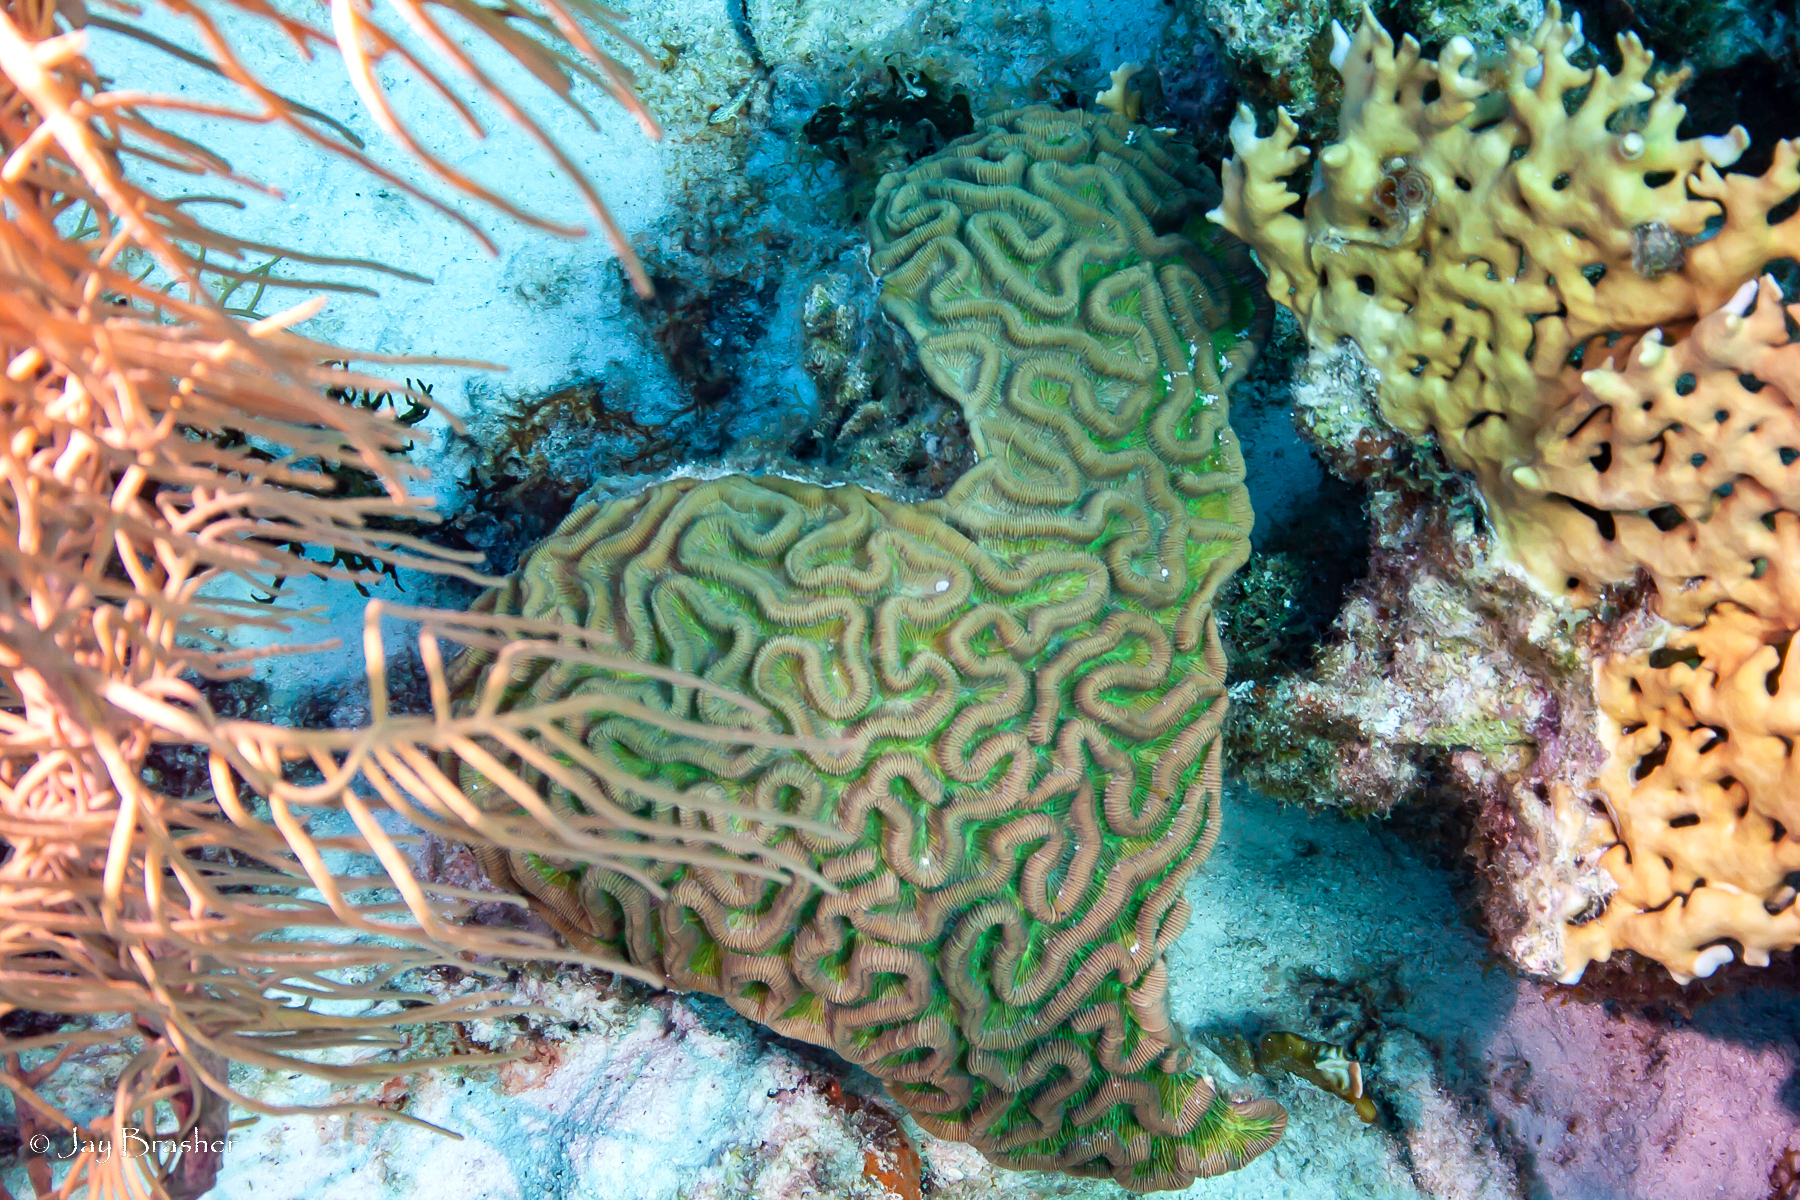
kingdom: Animalia
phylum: Cnidaria
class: Anthozoa
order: Scleractinia
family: Faviidae
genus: Colpophyllia
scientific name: Colpophyllia natans
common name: Boulder brain coral
